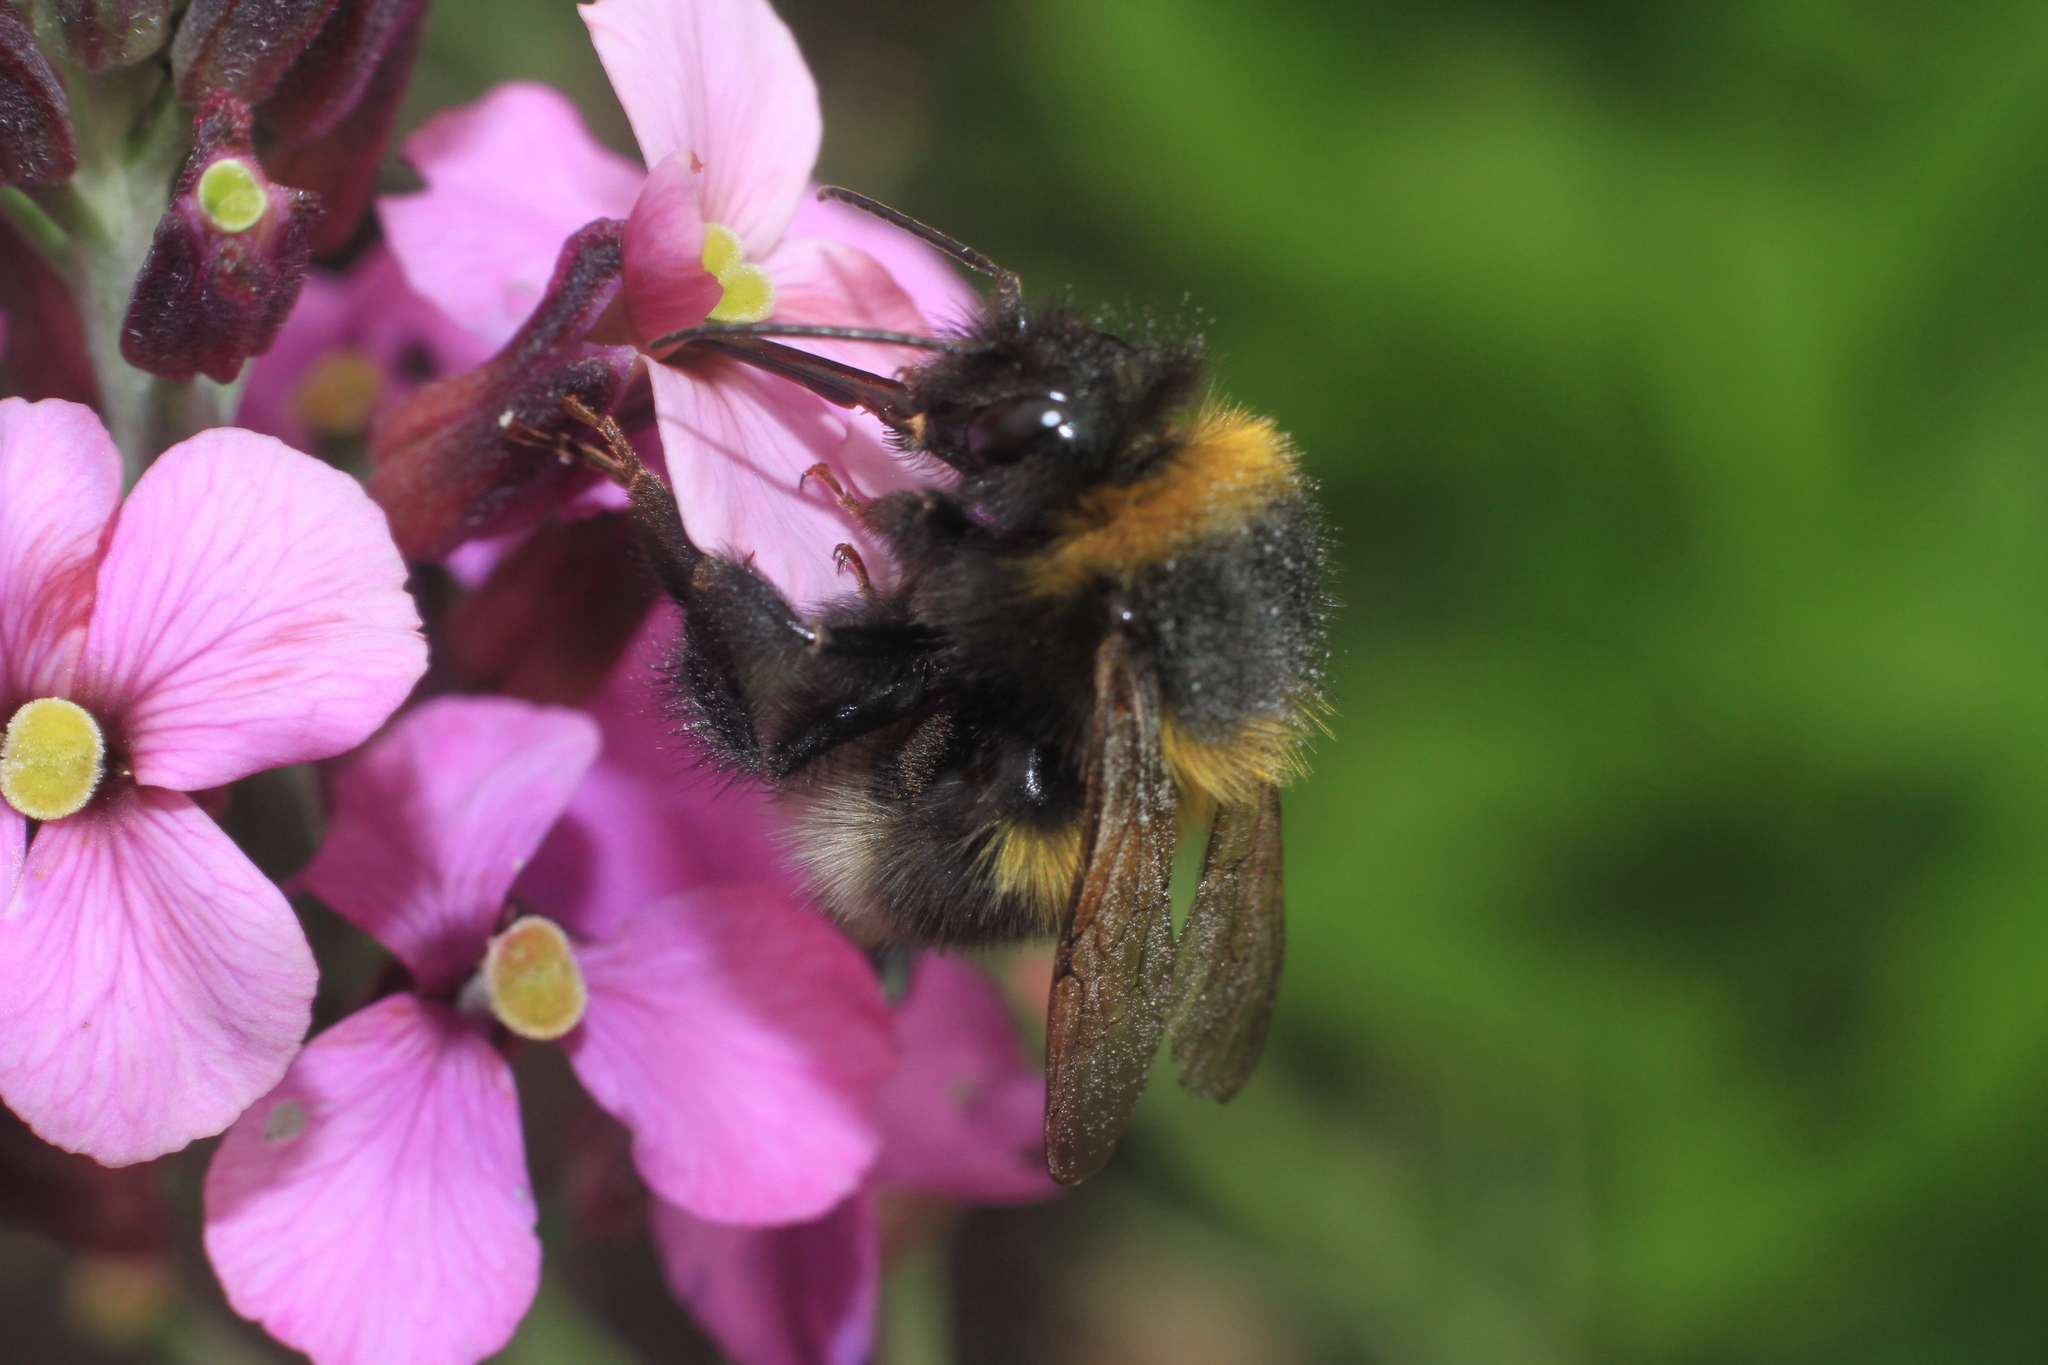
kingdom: Animalia
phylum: Arthropoda
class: Insecta
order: Hymenoptera
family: Apidae
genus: Bombus
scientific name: Bombus hortorum
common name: Garden bumblebee
